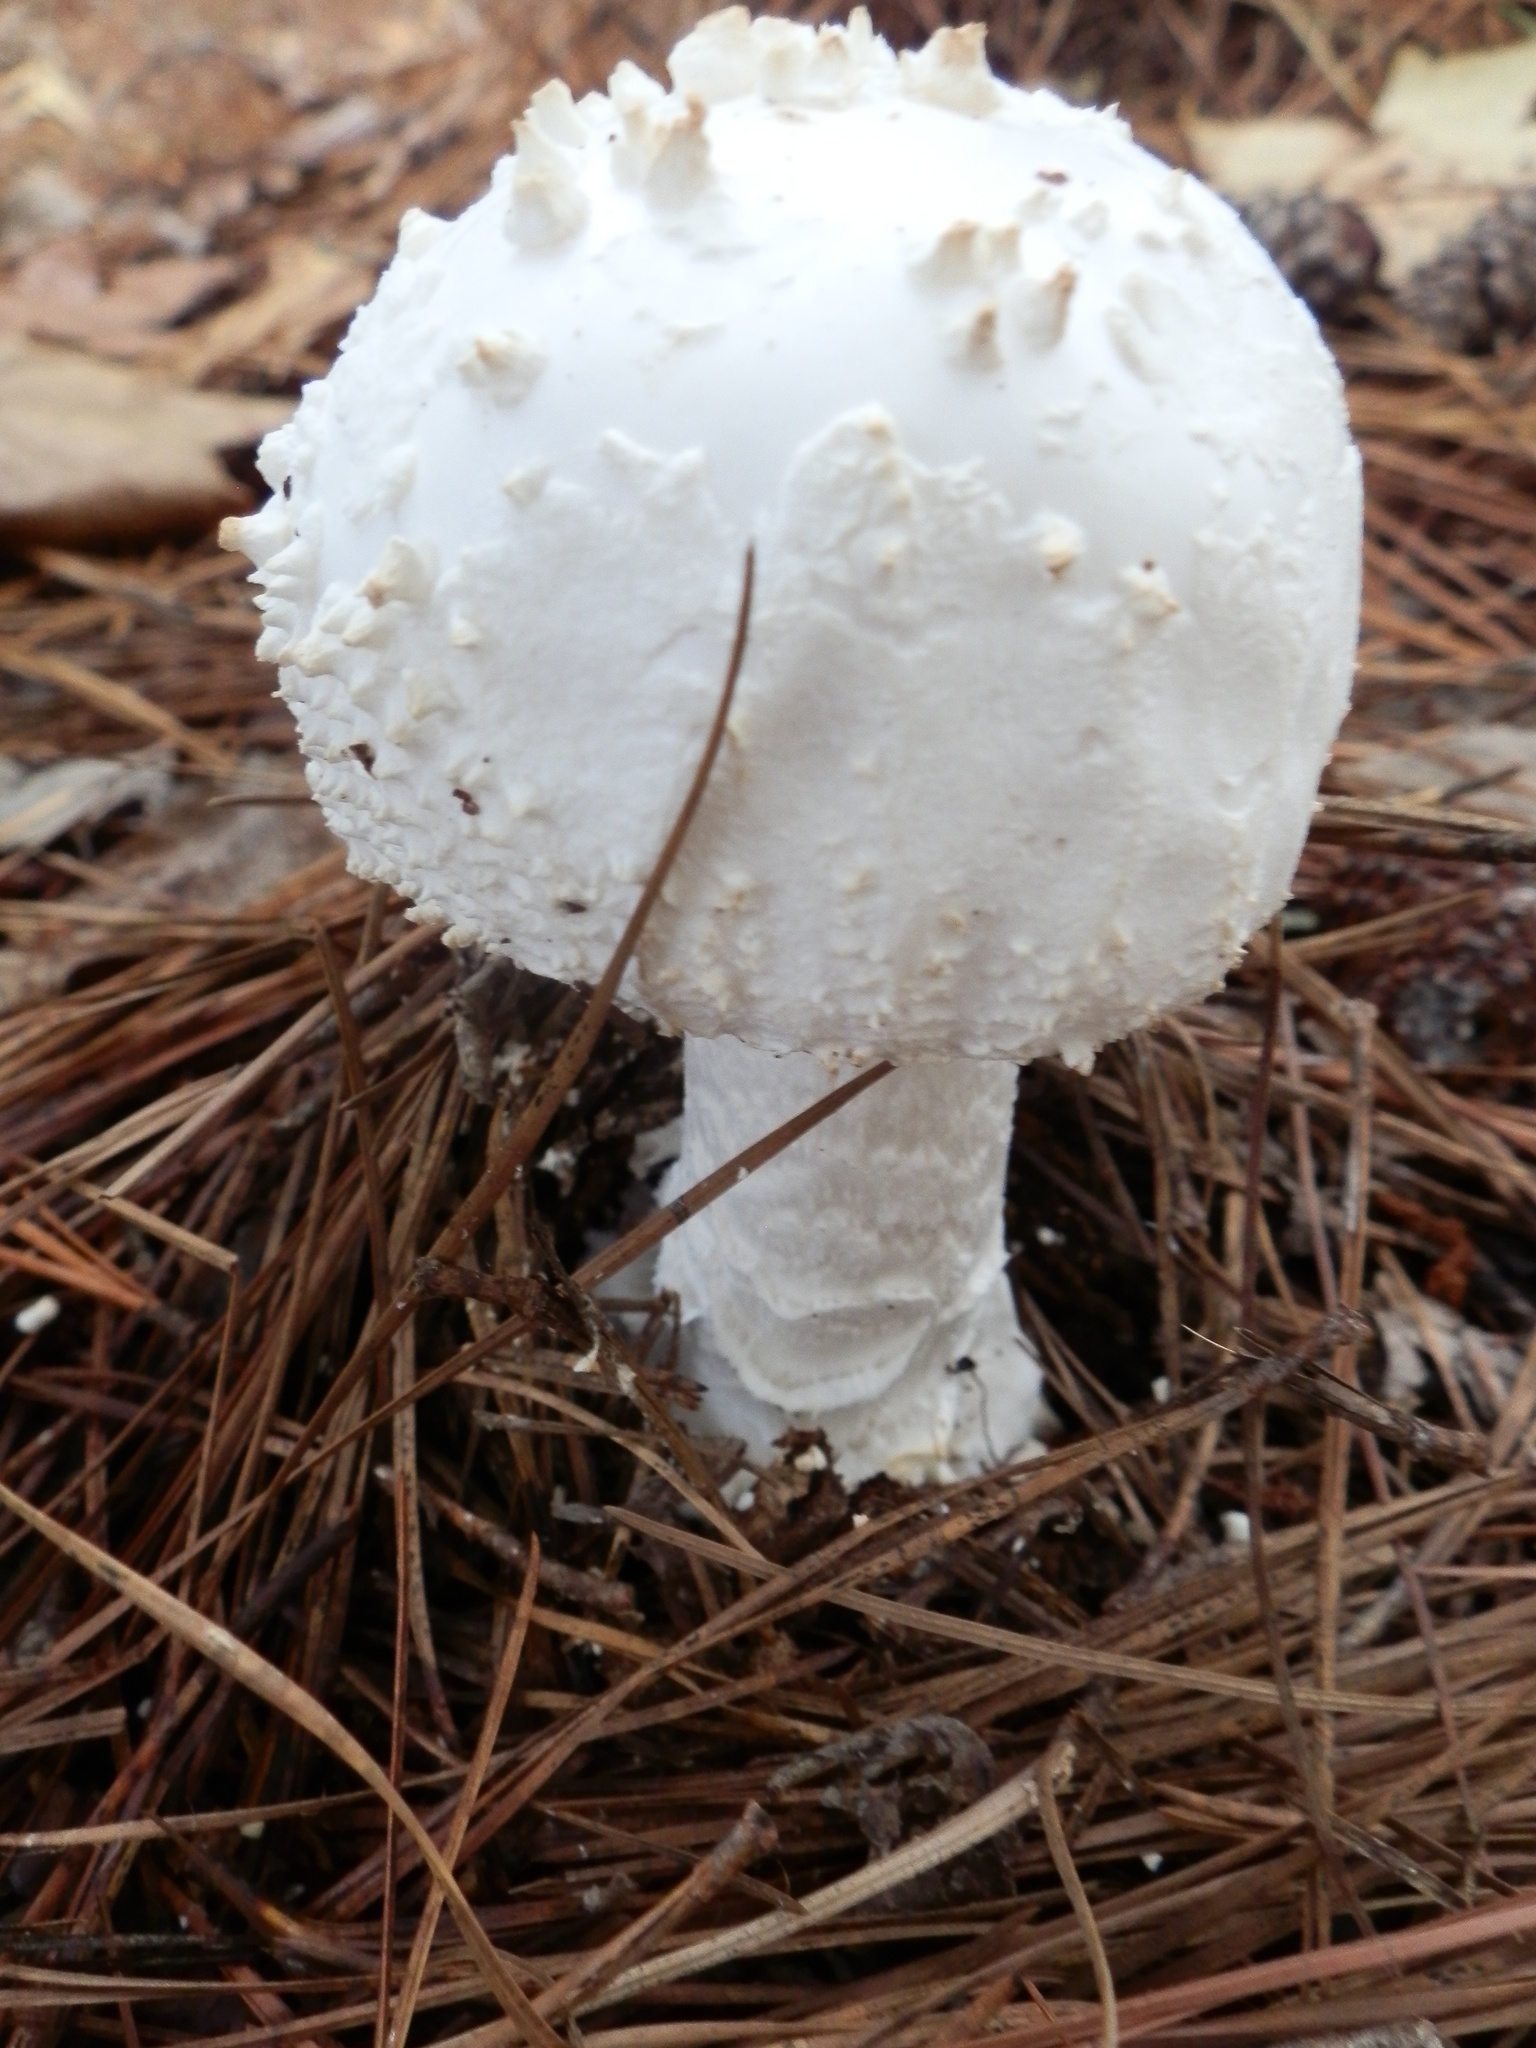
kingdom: Fungi
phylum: Basidiomycota
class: Agaricomycetes
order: Agaricales
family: Amanitaceae
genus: Amanita
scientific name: Amanita cokeri
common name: Coker's amanita
